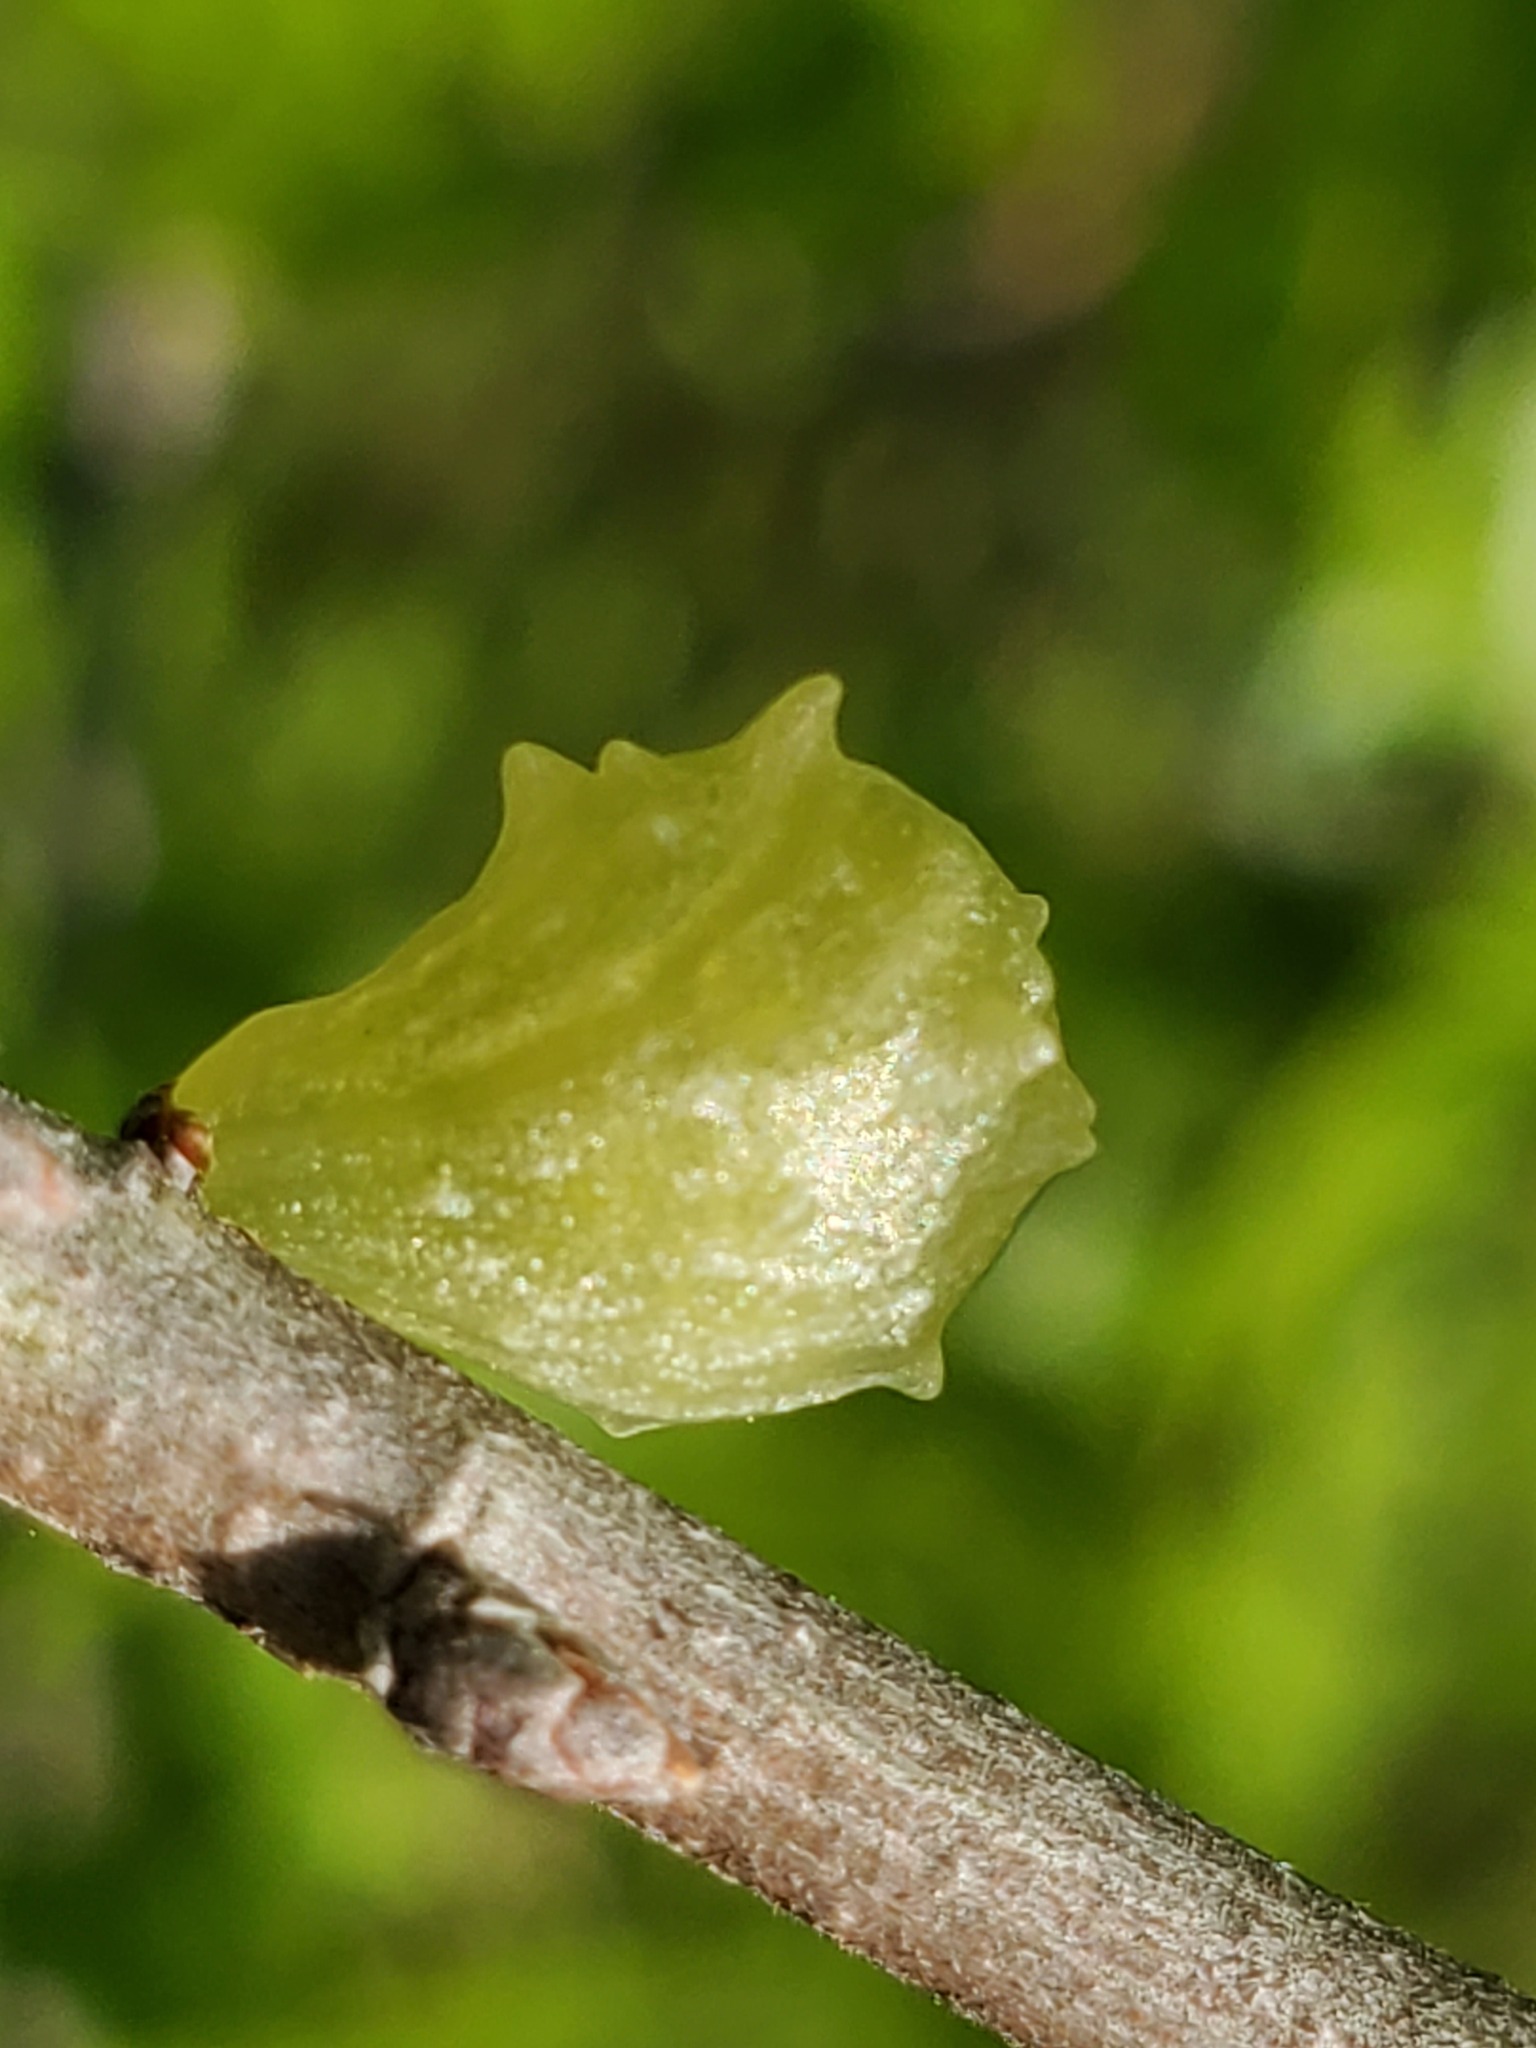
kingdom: Animalia
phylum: Arthropoda
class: Insecta
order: Hymenoptera
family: Cynipidae
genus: Cynips
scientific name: Cynips douglasi
